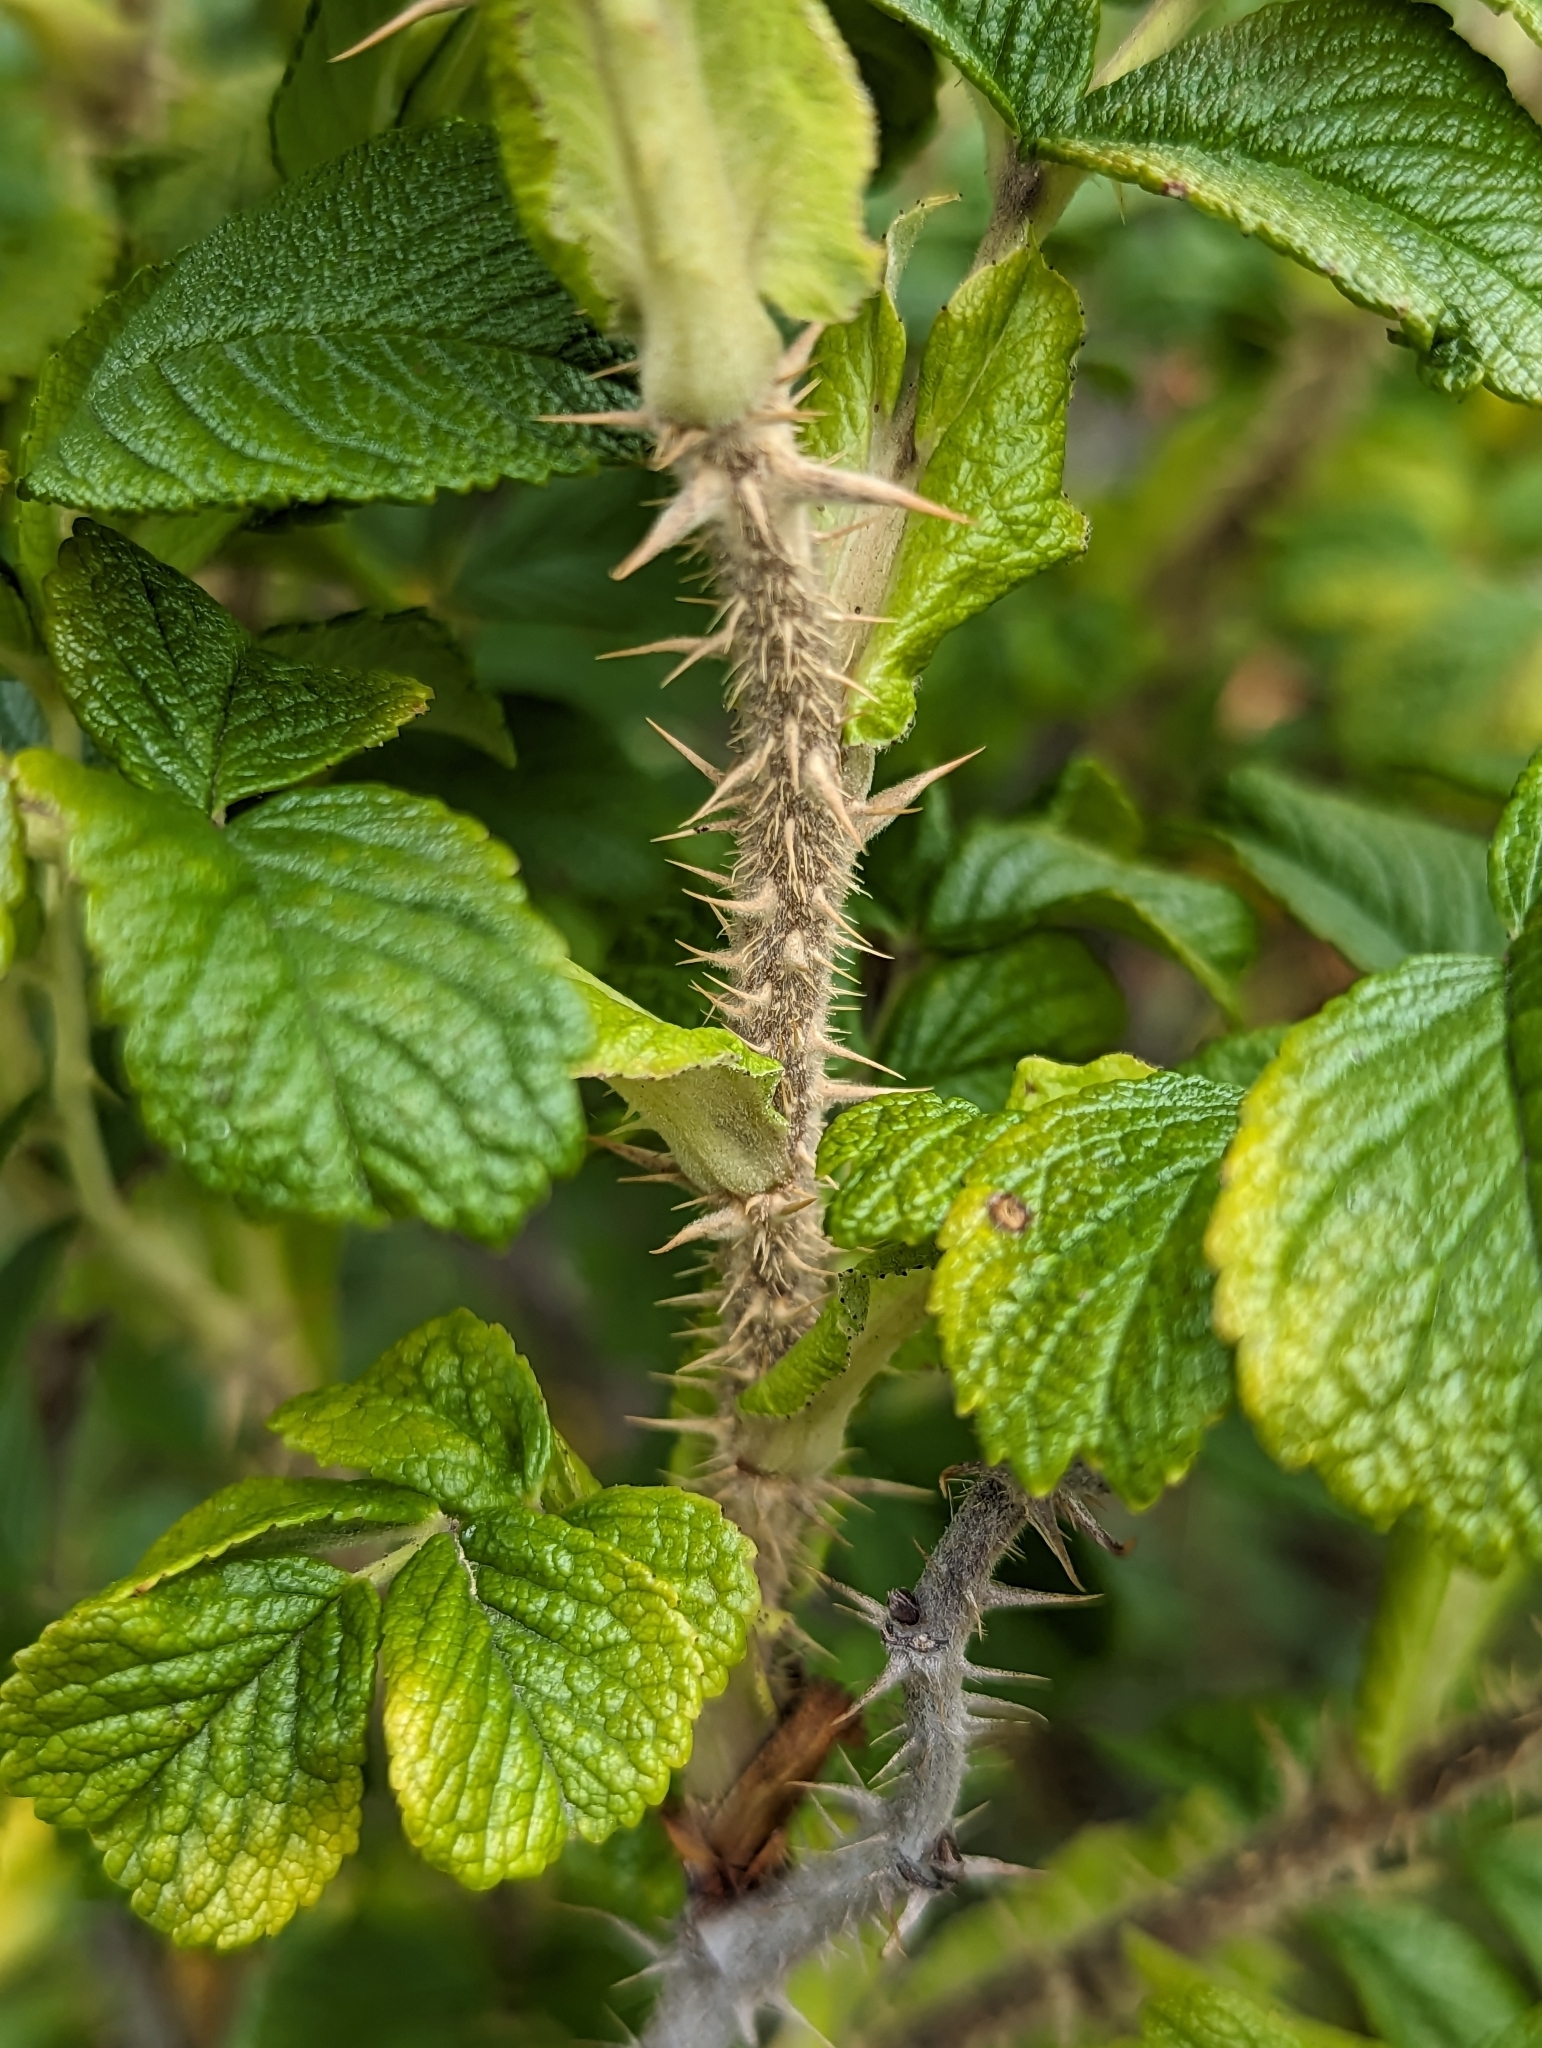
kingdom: Plantae
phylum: Tracheophyta
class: Magnoliopsida
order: Rosales
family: Rosaceae
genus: Rosa
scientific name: Rosa rugosa
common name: Japanese rose
